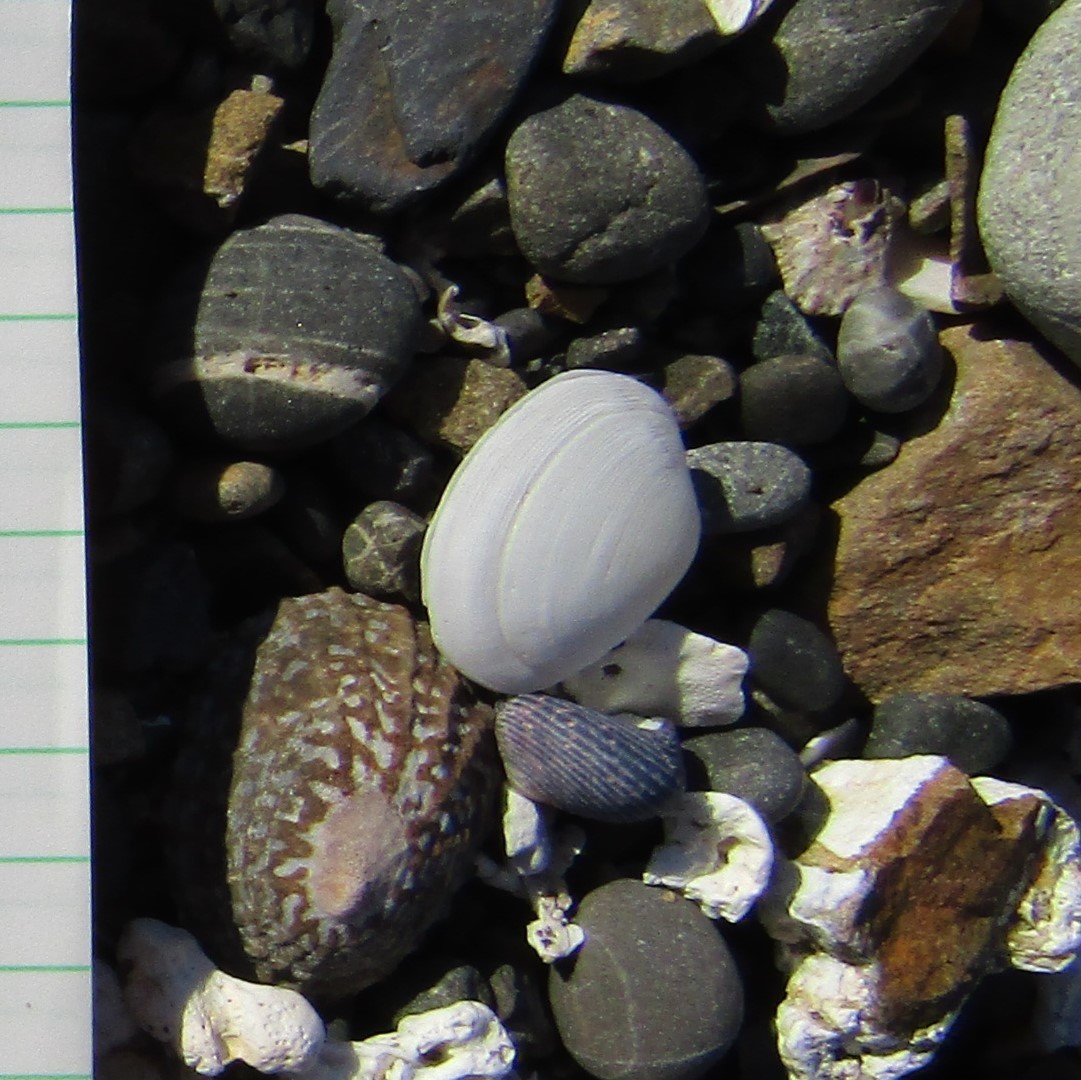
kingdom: Animalia
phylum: Mollusca
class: Bivalvia
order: Cardiida
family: Tellinidae
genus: Pseudarcopagia
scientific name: Pseudarcopagia disculus
